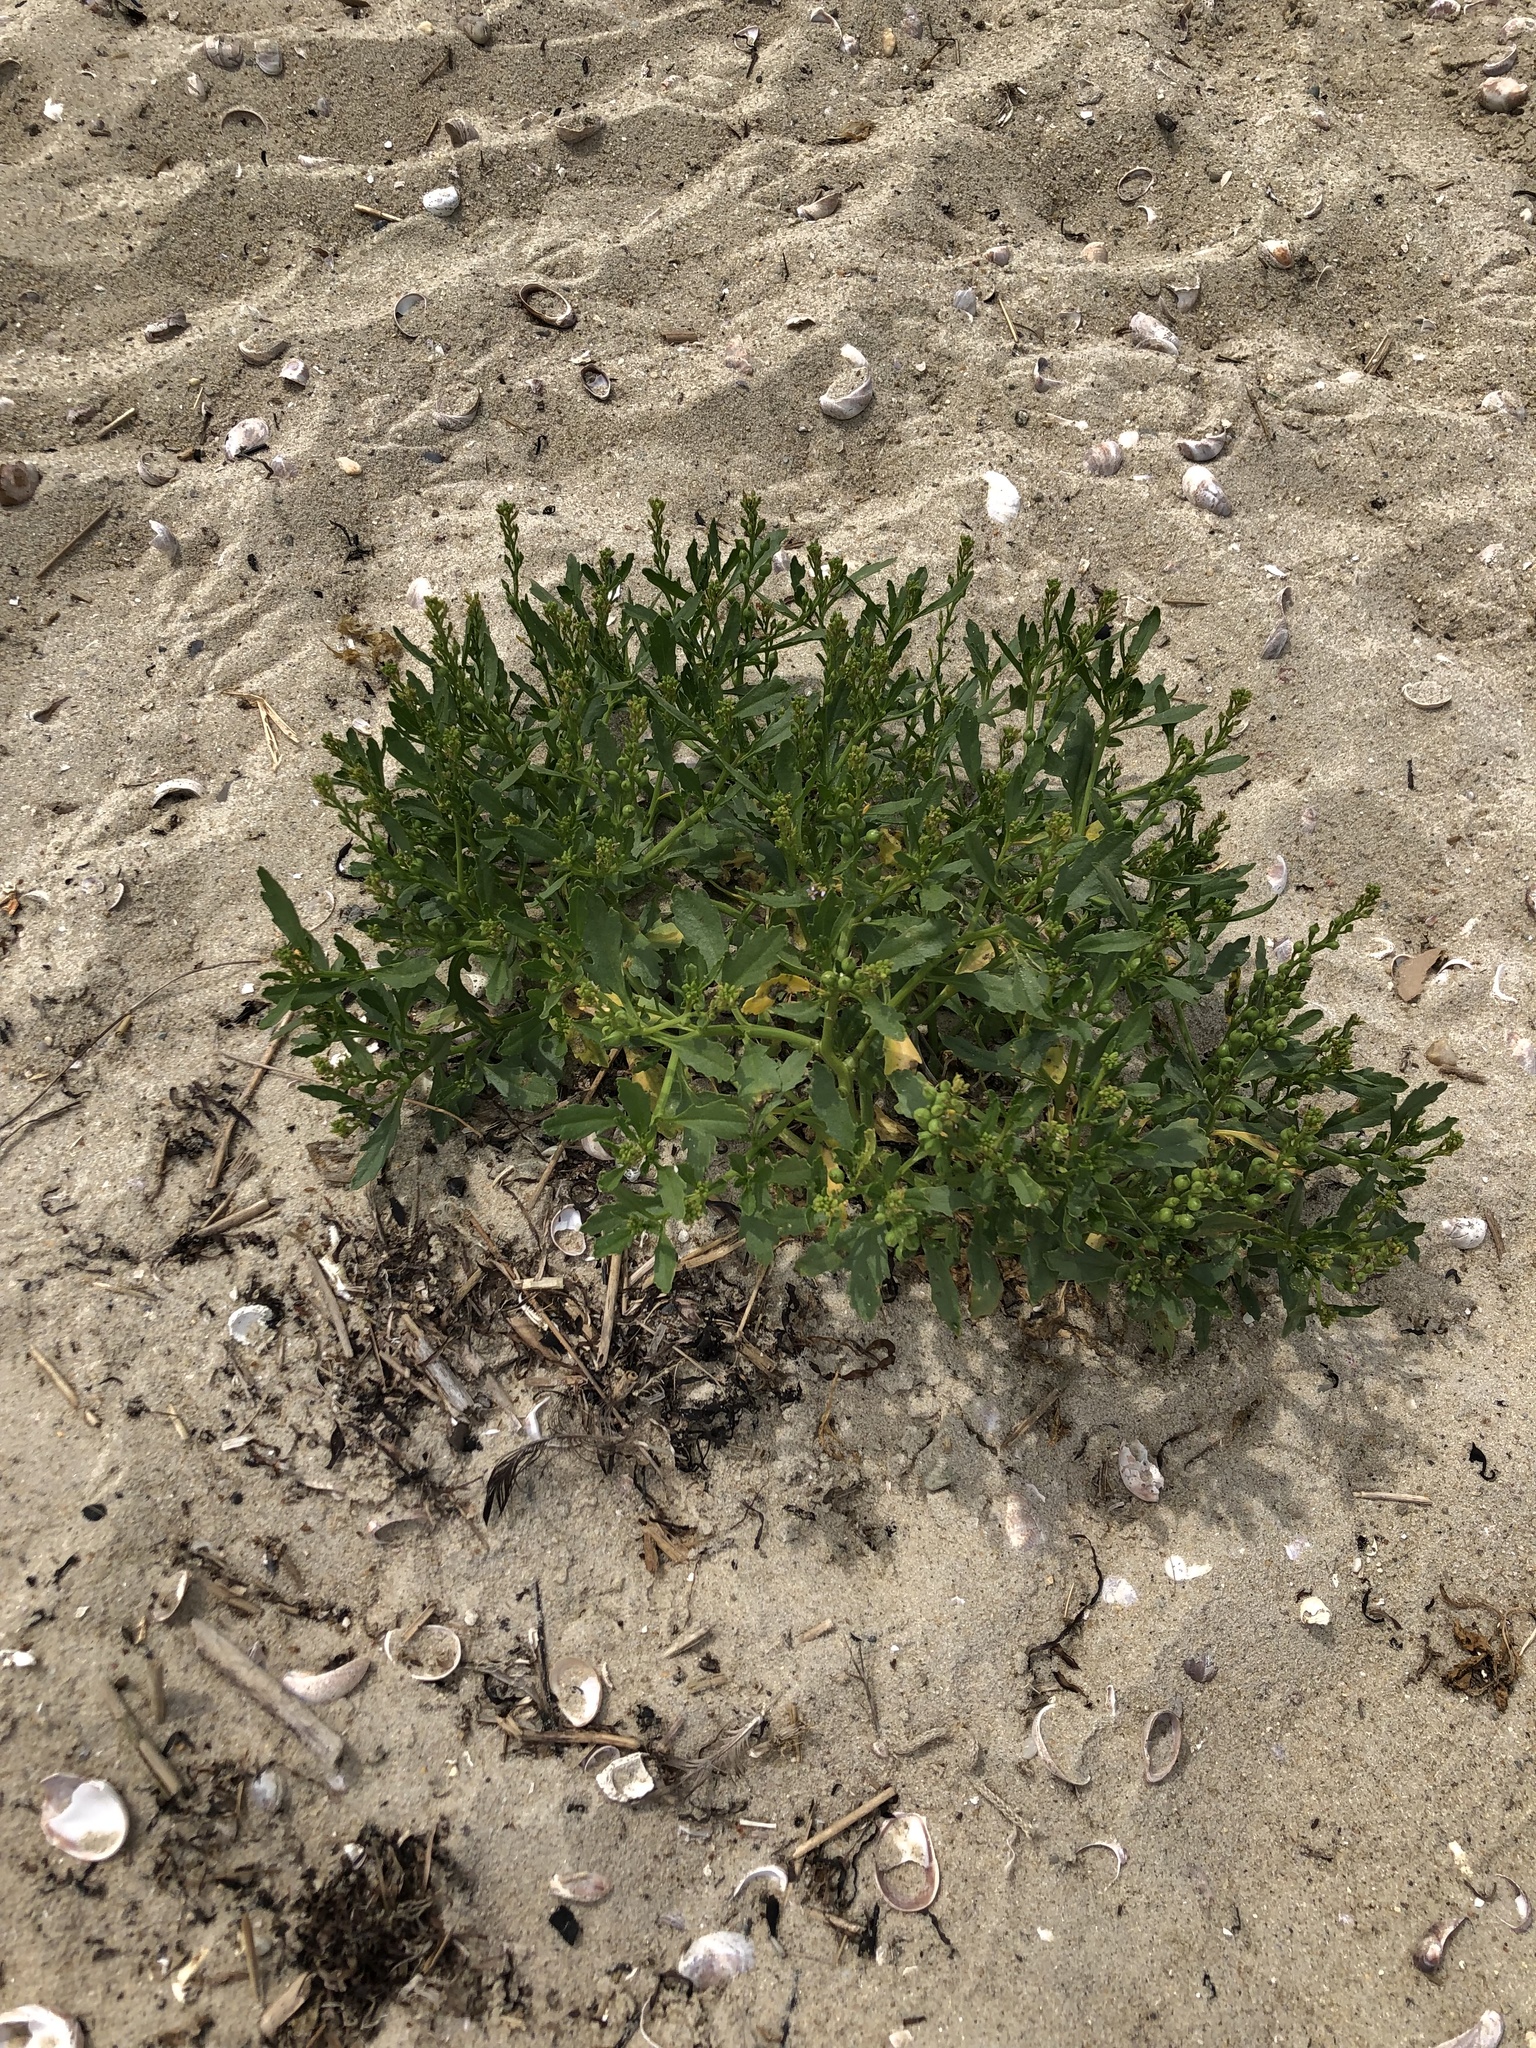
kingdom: Plantae
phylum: Tracheophyta
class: Magnoliopsida
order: Brassicales
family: Brassicaceae
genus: Cakile
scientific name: Cakile edentula
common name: American sea rocket
